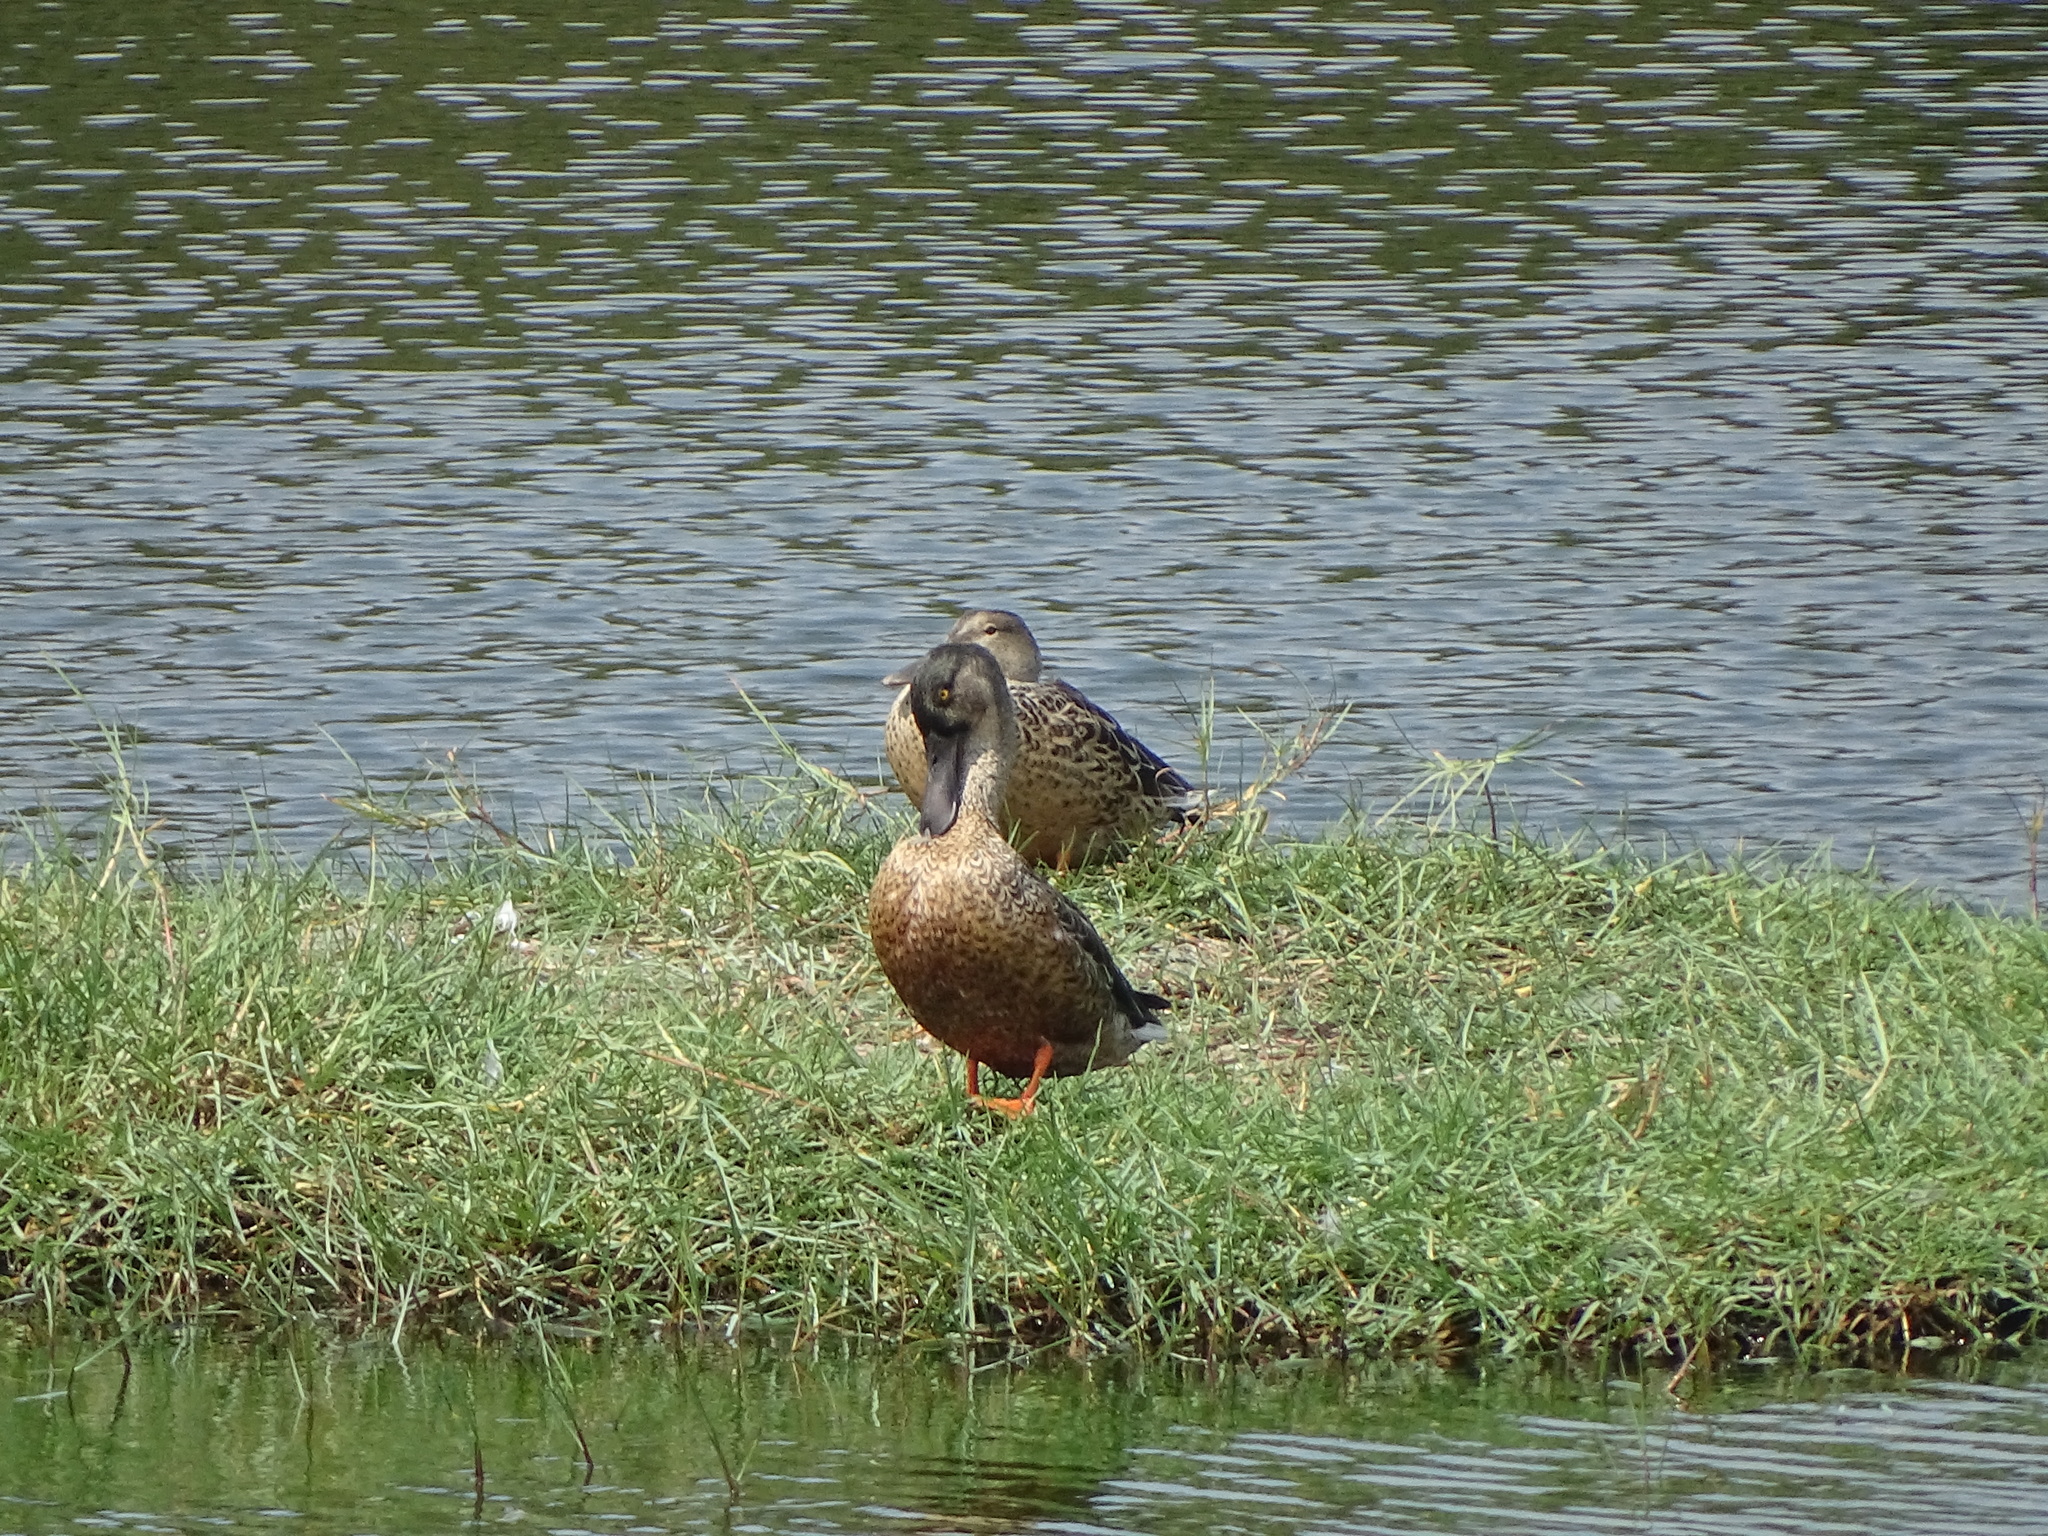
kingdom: Animalia
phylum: Chordata
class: Aves
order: Anseriformes
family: Anatidae
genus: Spatula
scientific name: Spatula clypeata
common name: Northern shoveler
